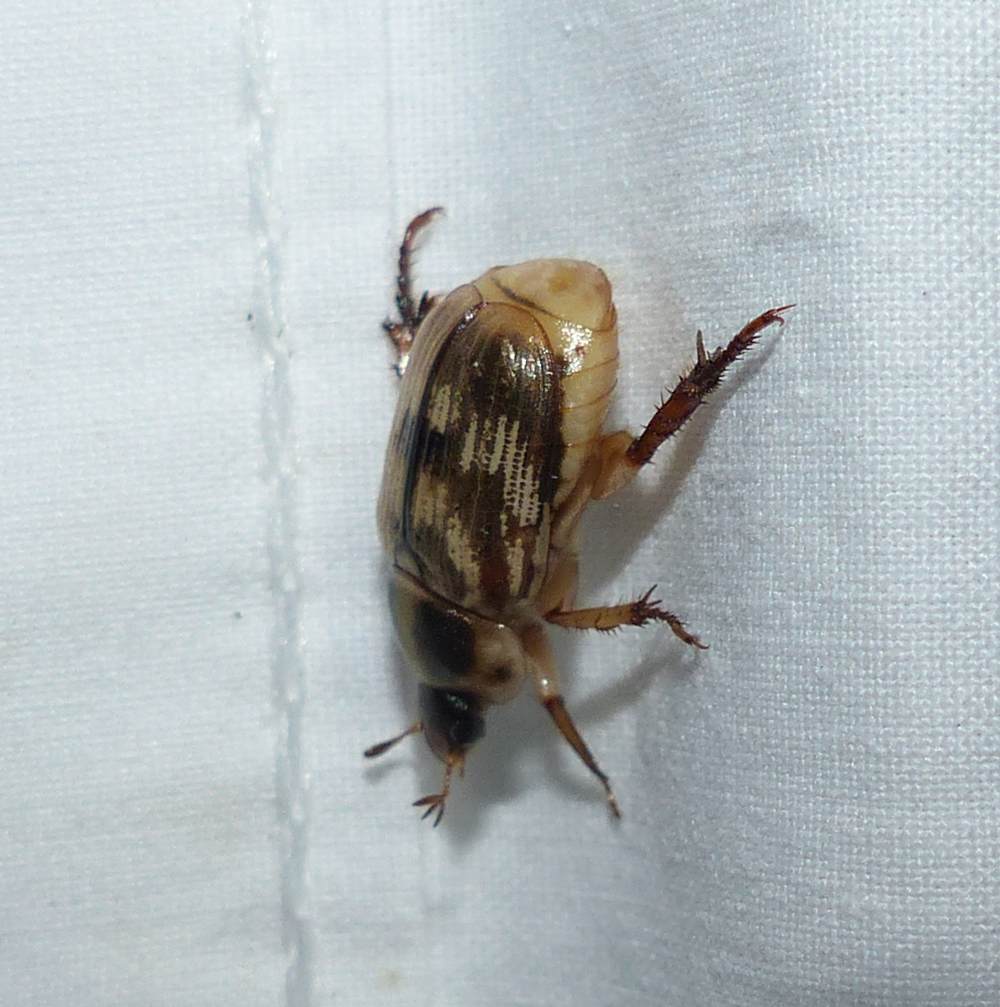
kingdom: Animalia
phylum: Arthropoda
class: Insecta
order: Coleoptera
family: Scarabaeidae
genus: Exomala
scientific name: Exomala orientalis
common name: Oriental beetle
